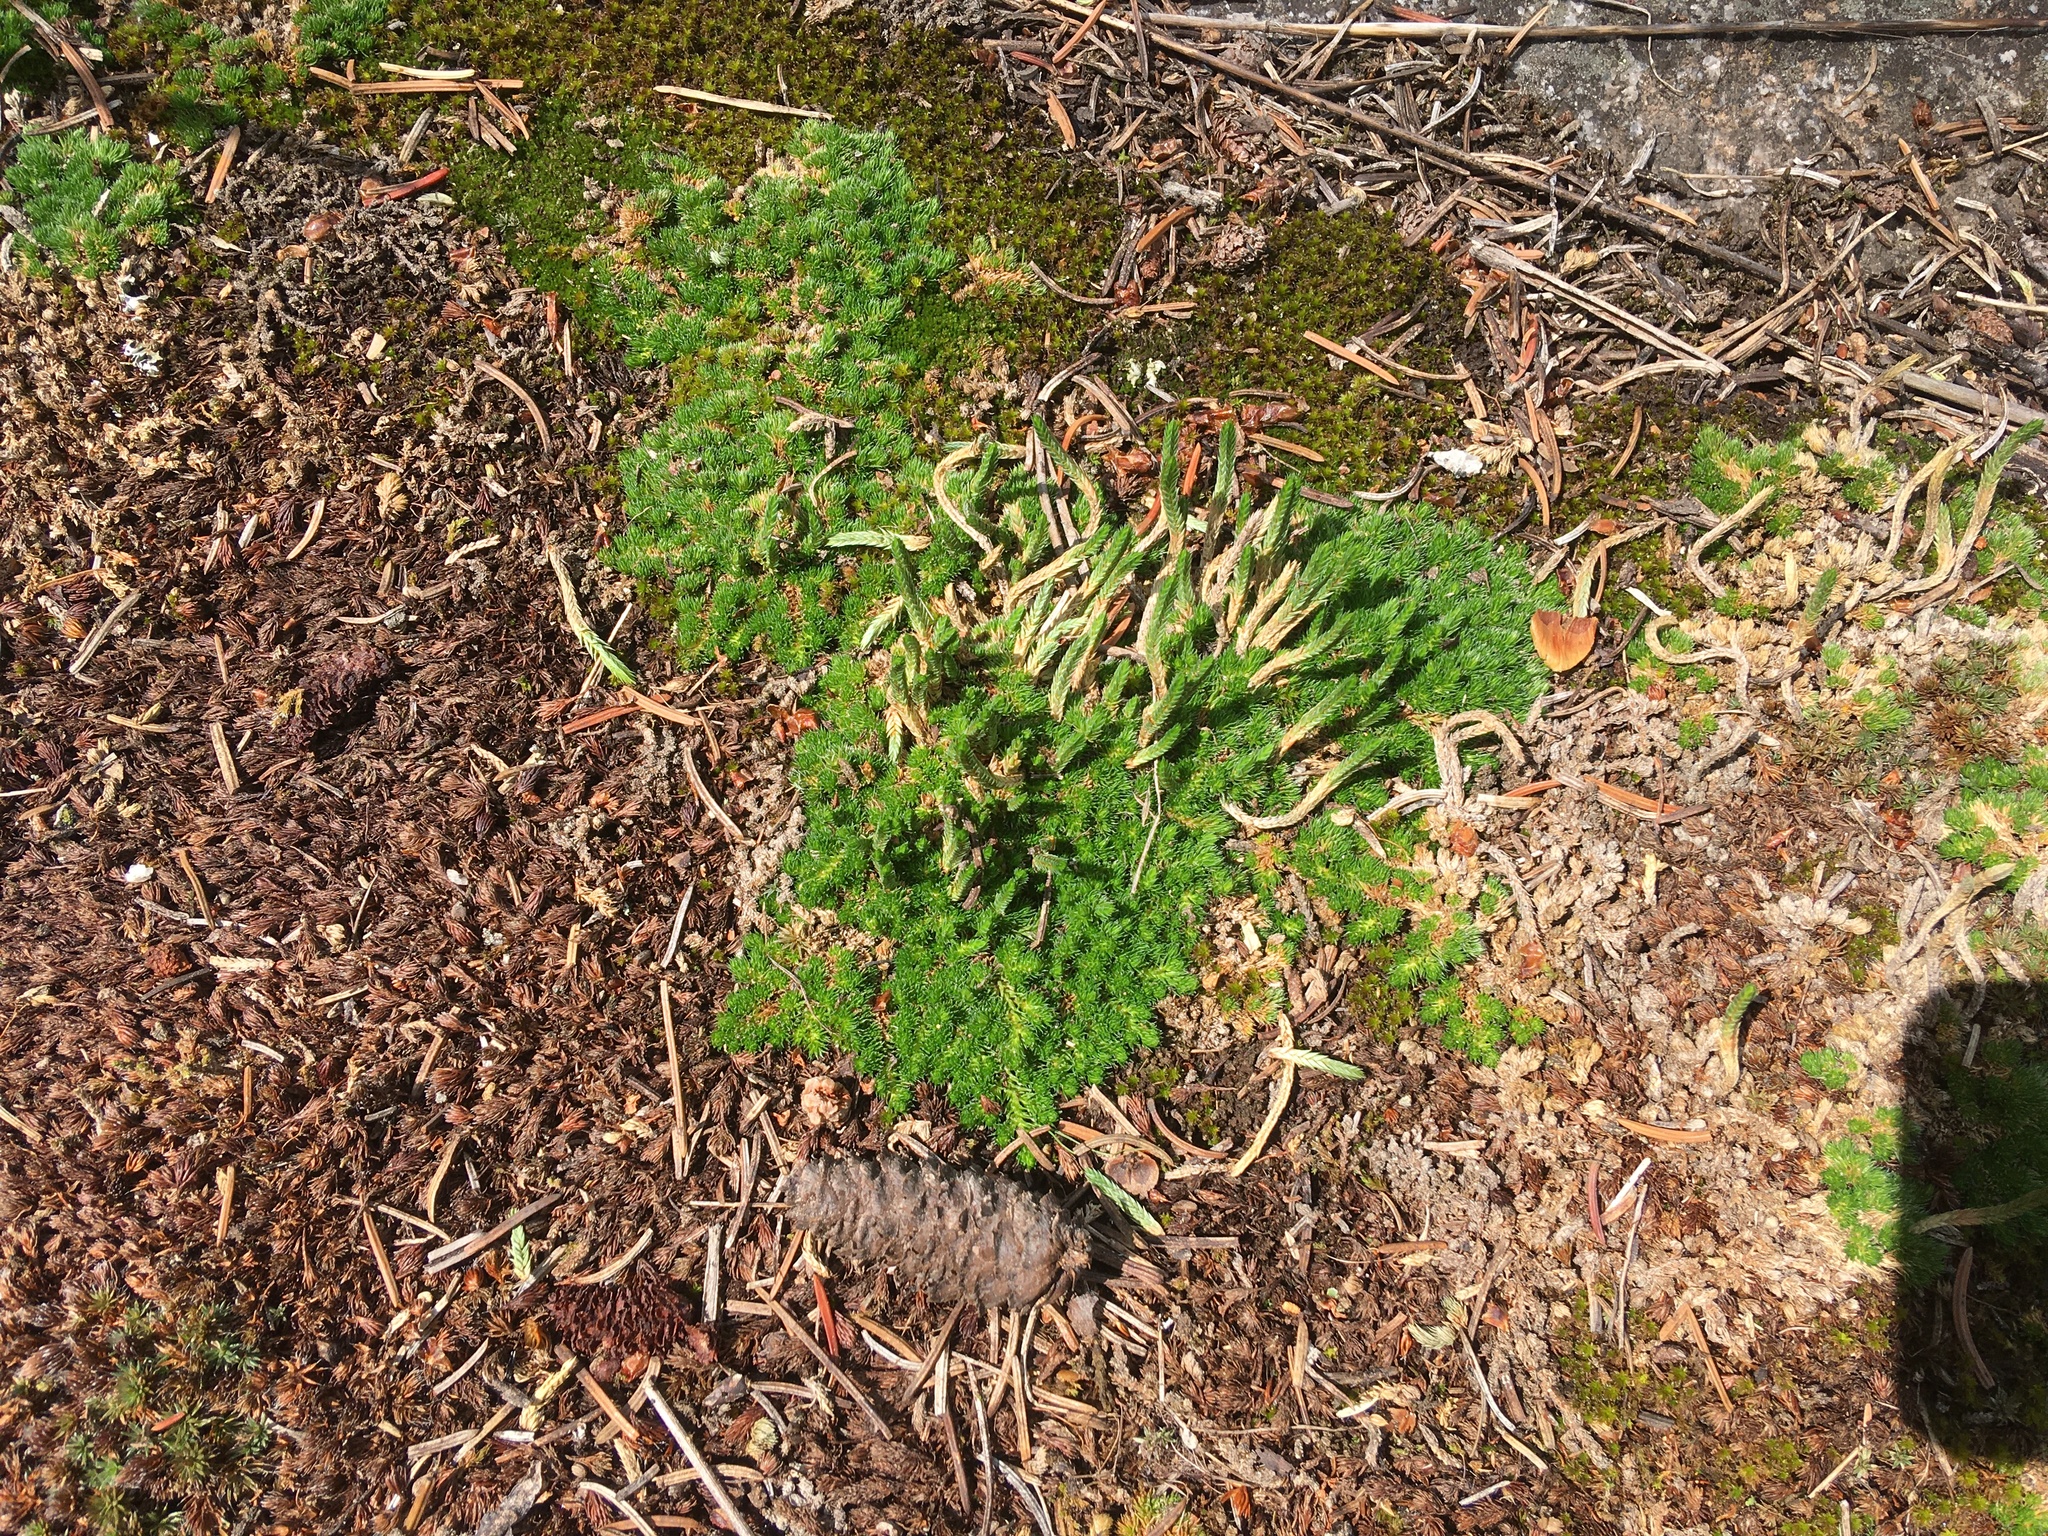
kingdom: Plantae
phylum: Tracheophyta
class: Lycopodiopsida
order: Selaginellales
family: Selaginellaceae
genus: Selaginella
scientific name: Selaginella densa
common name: Mountain spike-moss
